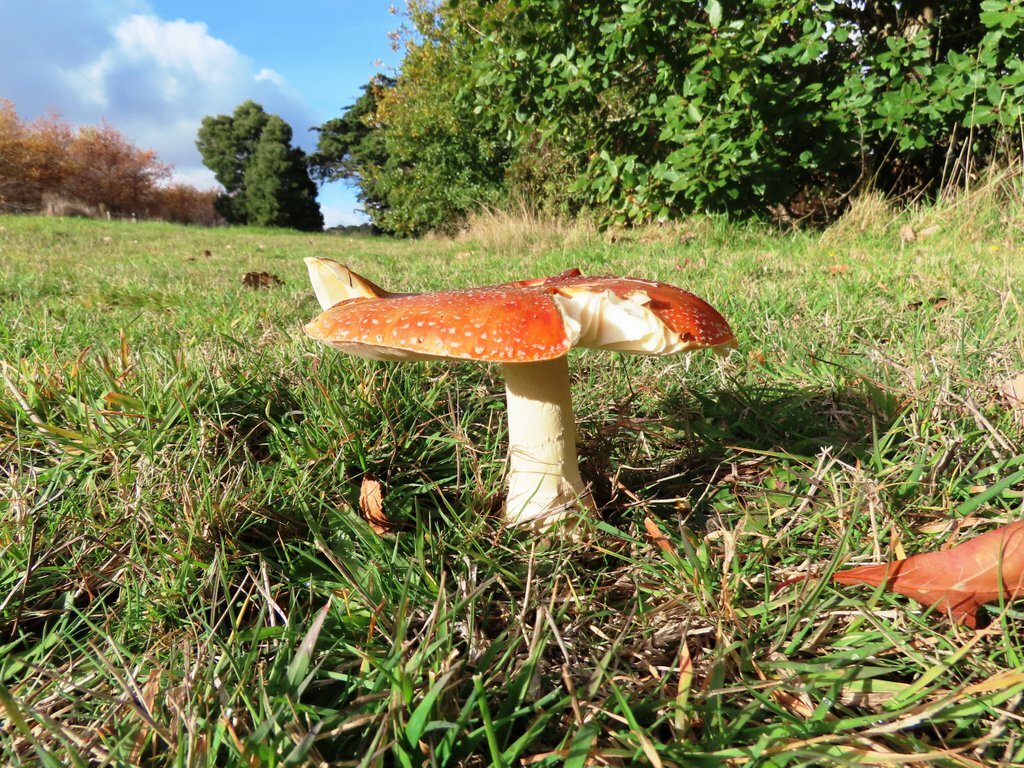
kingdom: Fungi
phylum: Basidiomycota
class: Agaricomycetes
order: Agaricales
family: Amanitaceae
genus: Amanita
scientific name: Amanita muscaria
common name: Fly agaric
